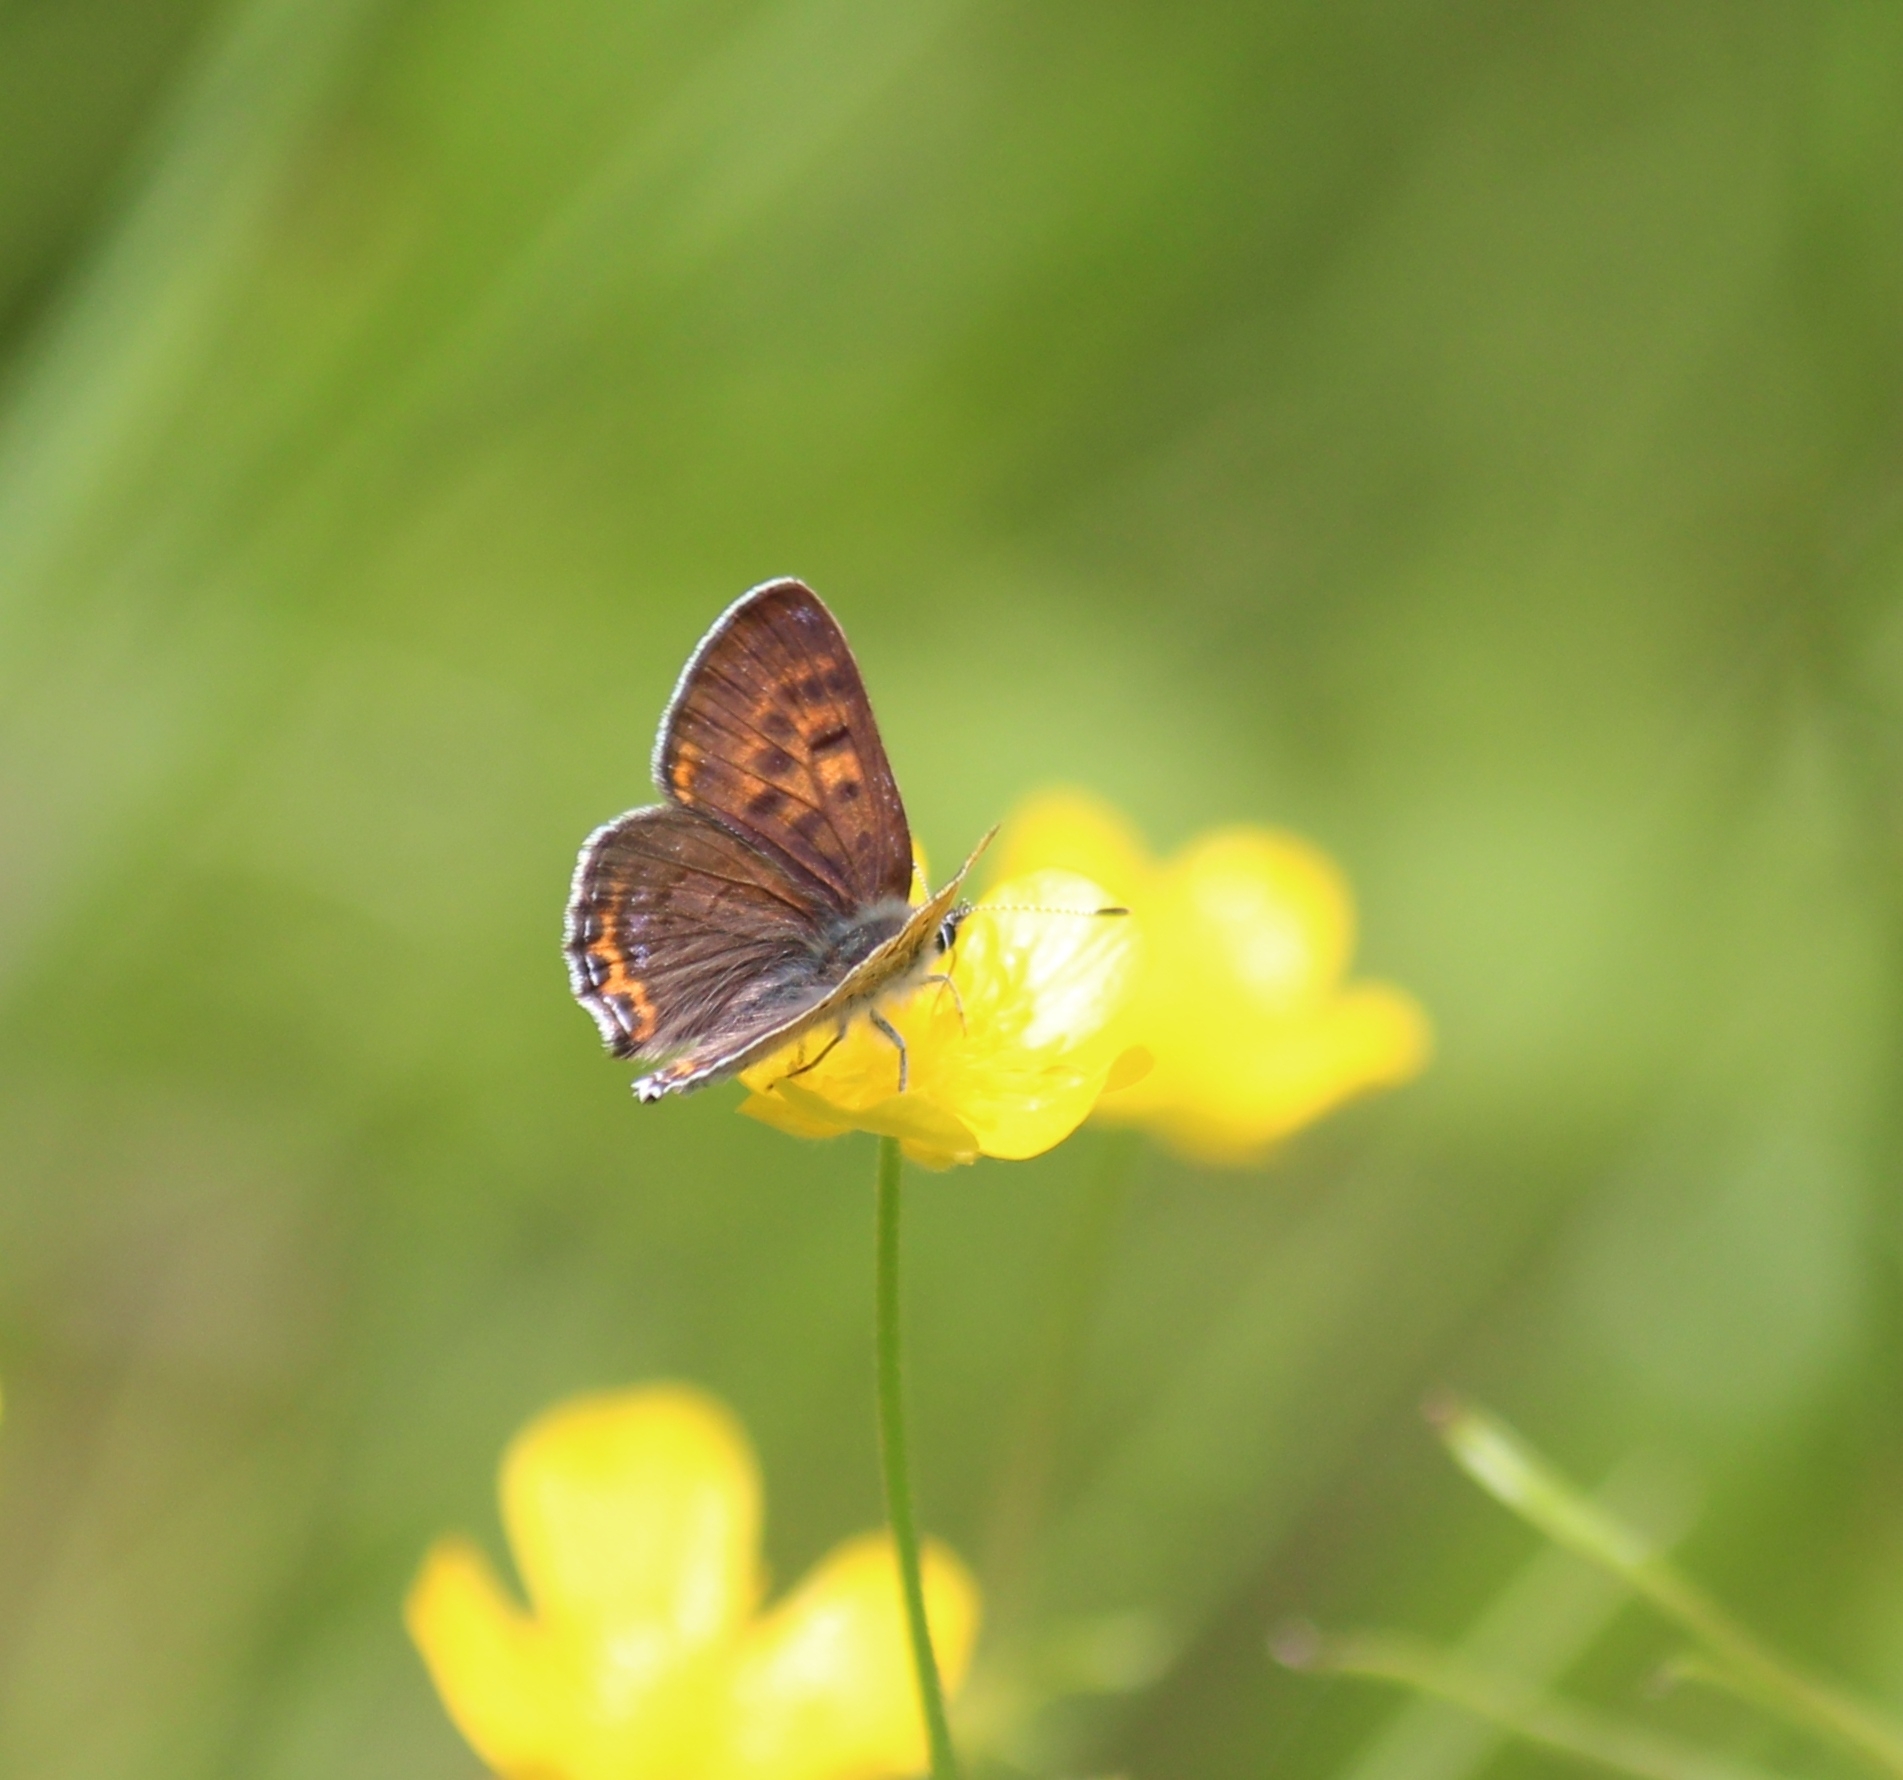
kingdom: Animalia
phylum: Arthropoda
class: Insecta
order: Lepidoptera
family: Lycaenidae
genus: Helleia
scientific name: Helleia helle
